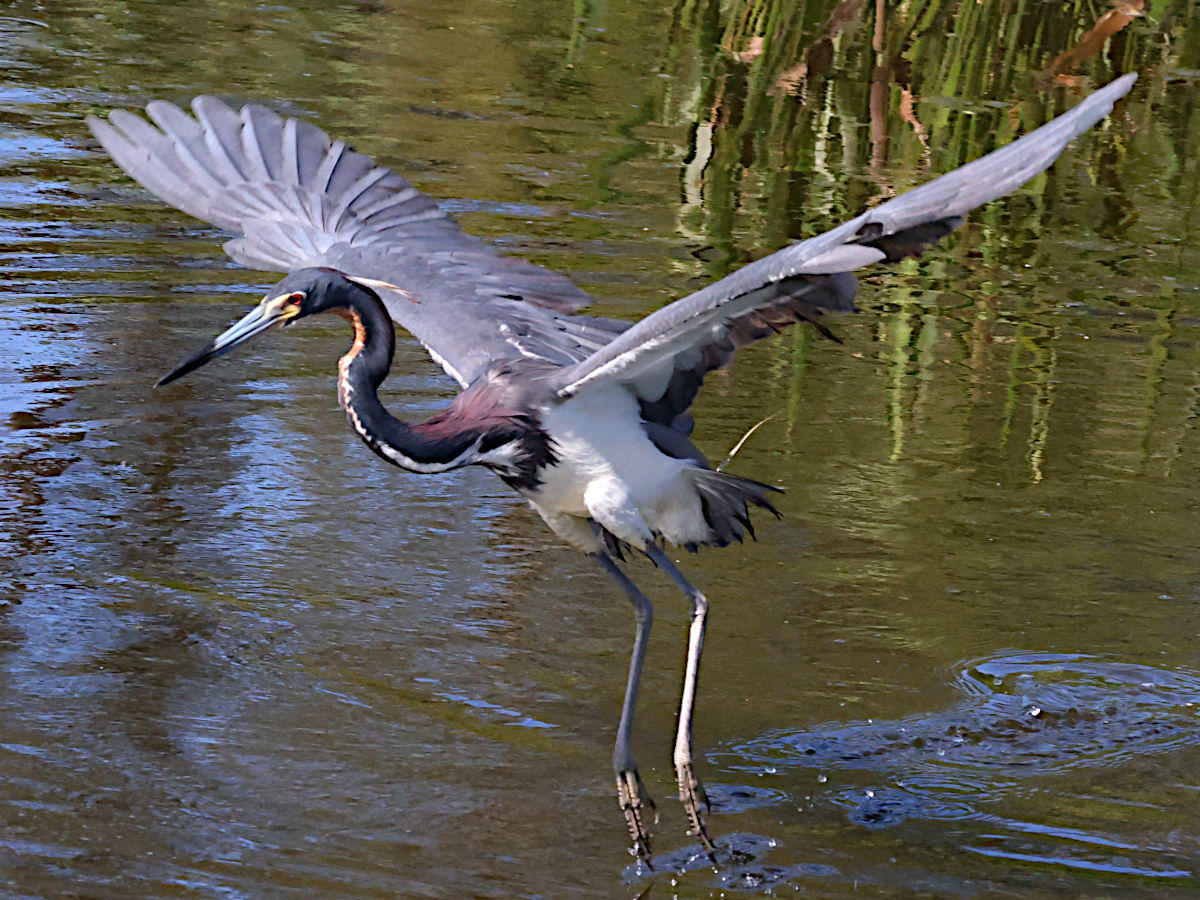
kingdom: Animalia
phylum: Chordata
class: Aves
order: Pelecaniformes
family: Ardeidae
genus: Egretta
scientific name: Egretta tricolor
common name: Tricolored heron
